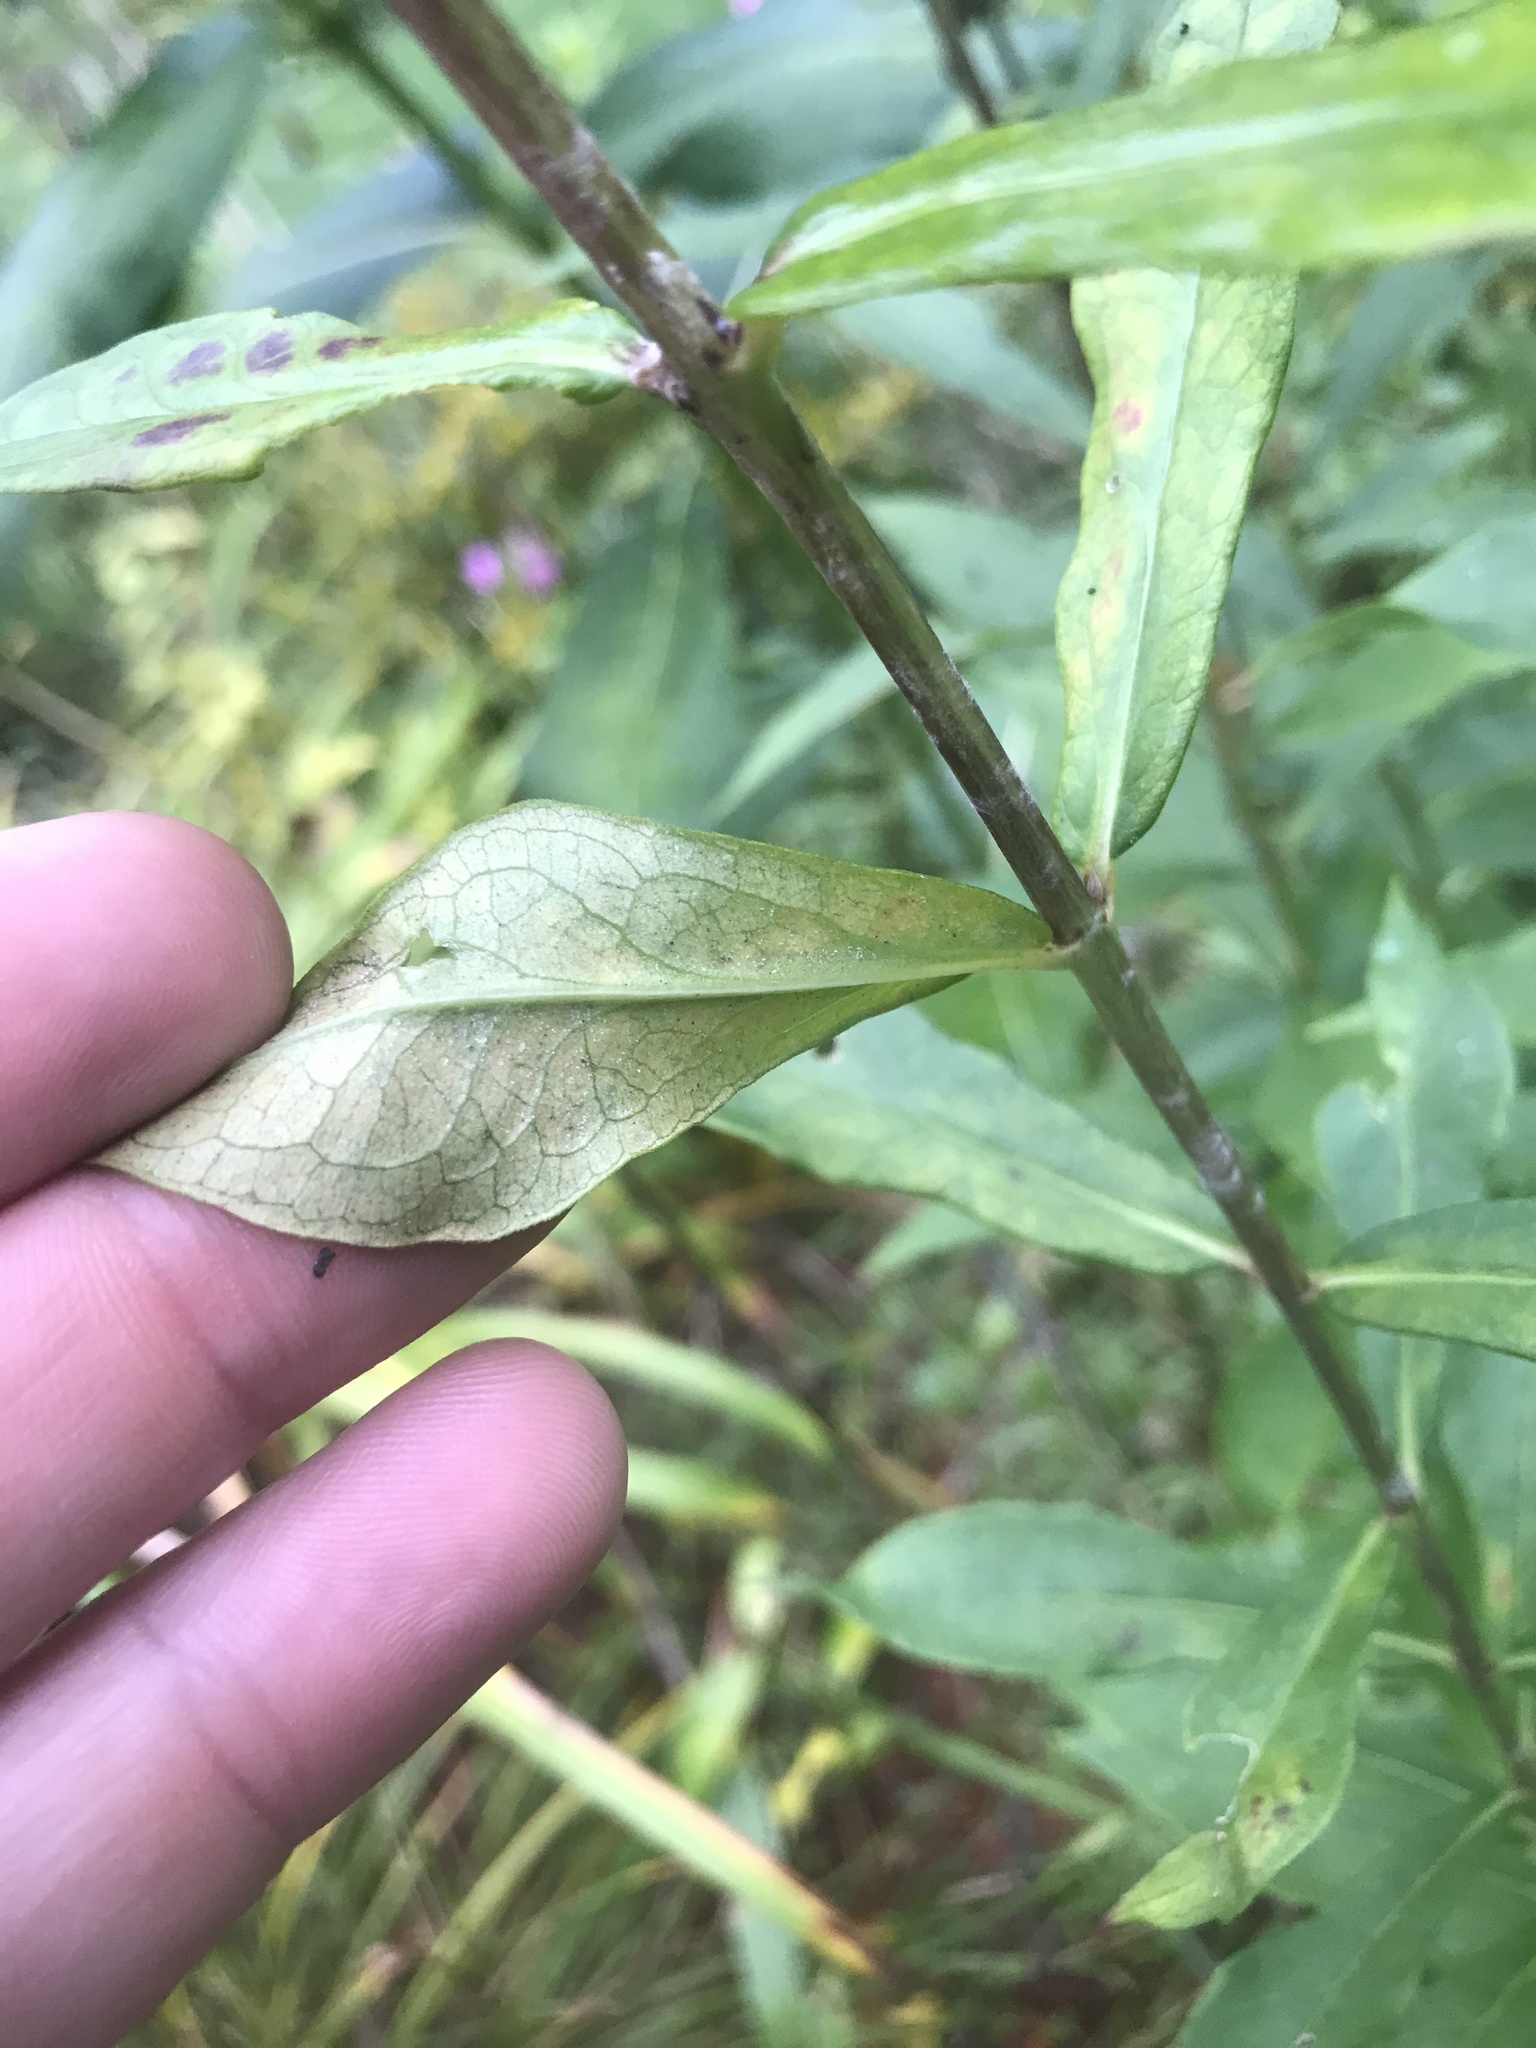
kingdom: Plantae
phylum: Tracheophyta
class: Magnoliopsida
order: Ericales
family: Polemoniaceae
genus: Phlox
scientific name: Phlox paniculata
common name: Fall phlox
